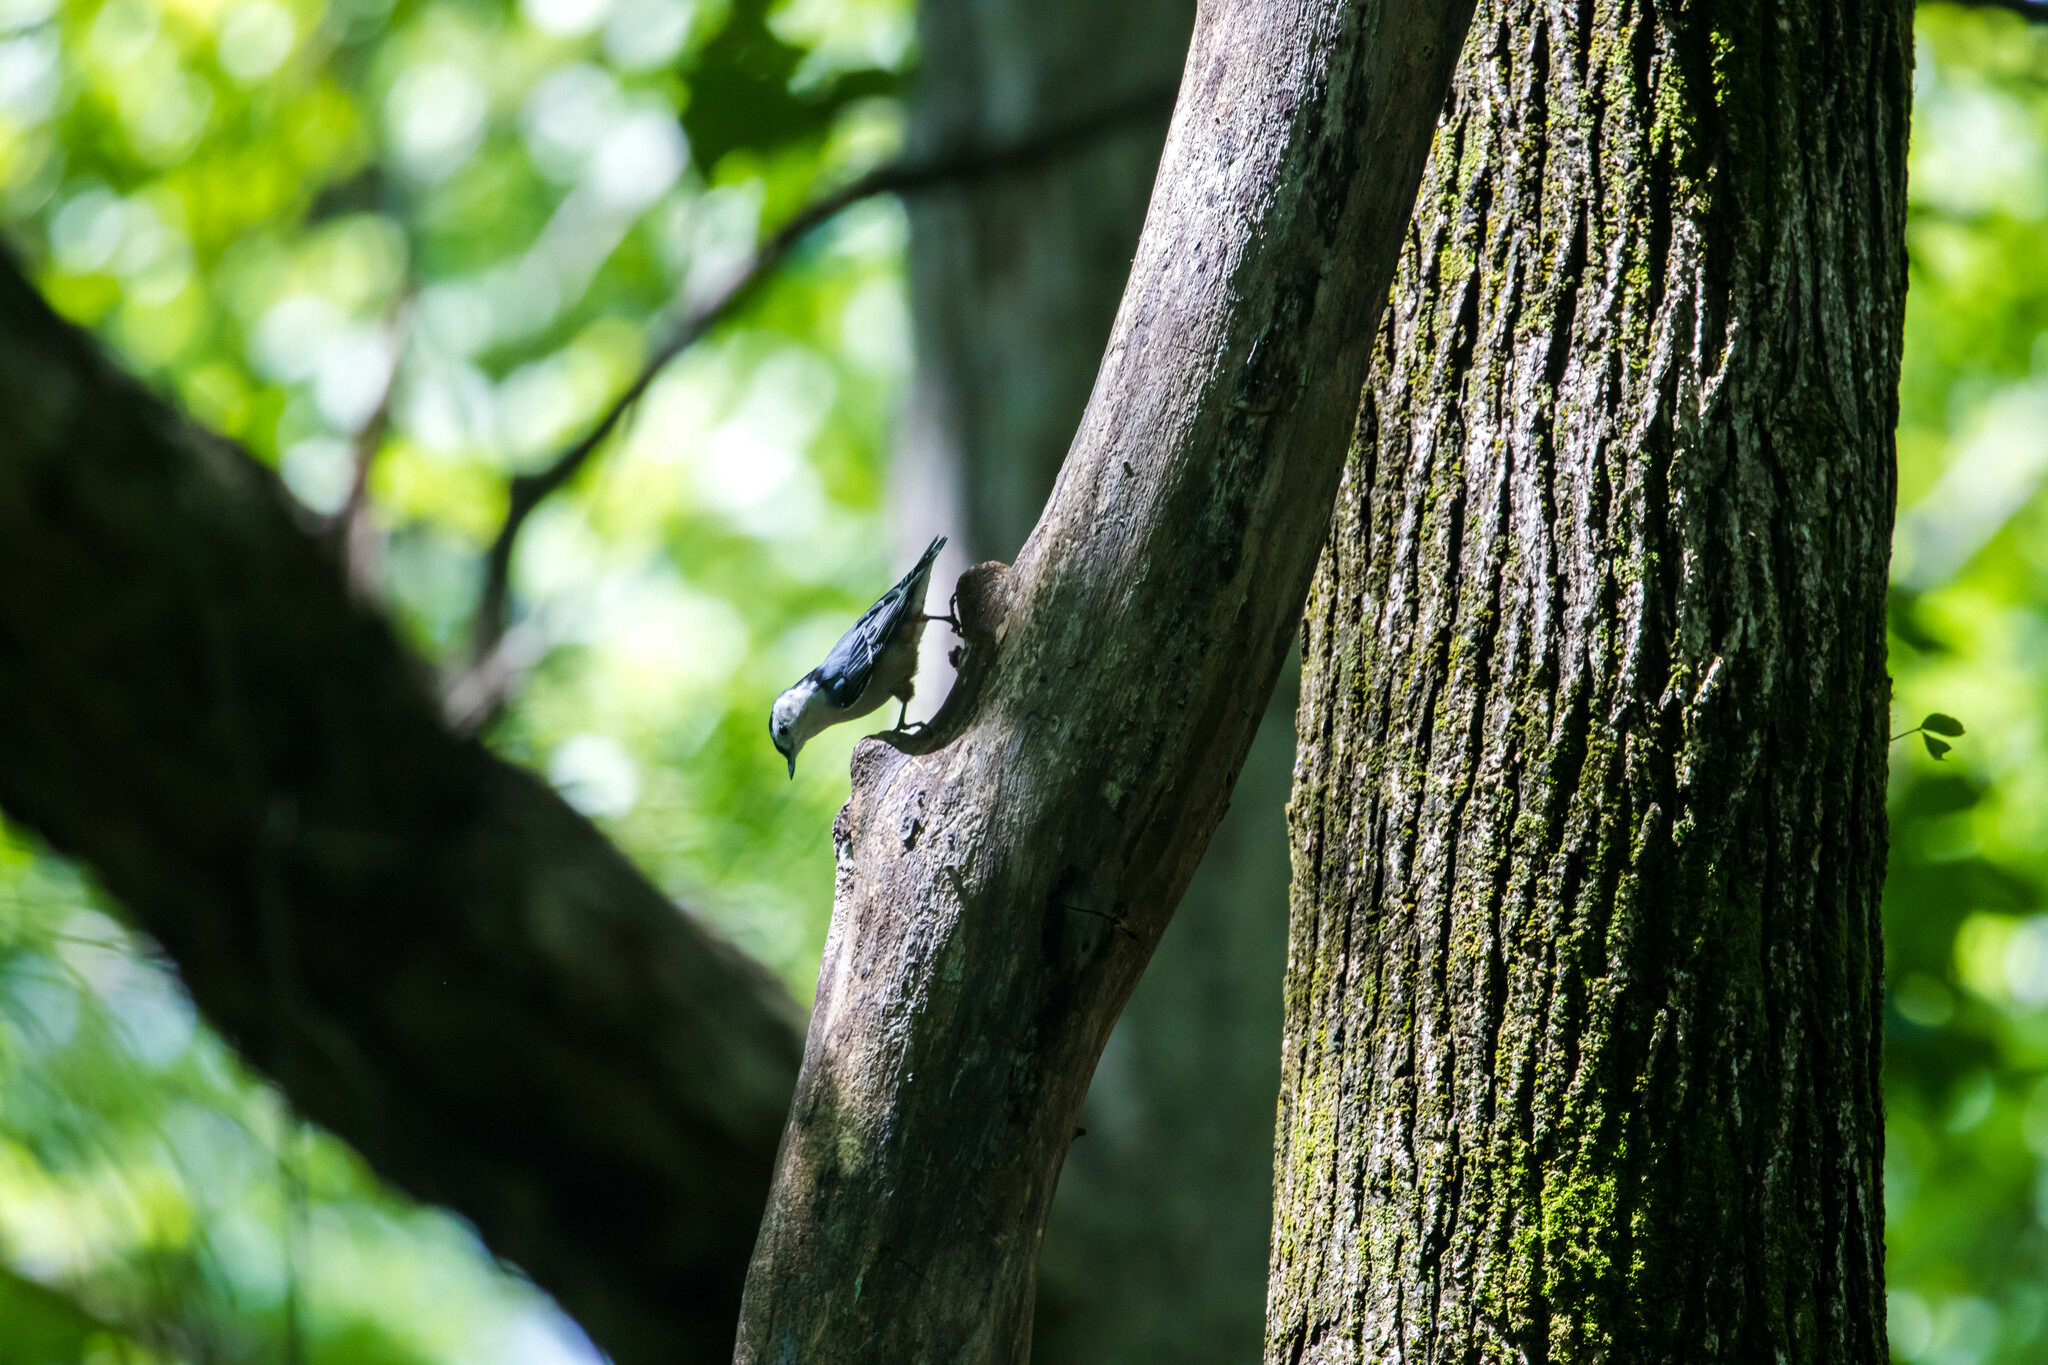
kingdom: Animalia
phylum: Chordata
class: Aves
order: Passeriformes
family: Sittidae
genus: Sitta
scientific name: Sitta carolinensis
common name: White-breasted nuthatch
